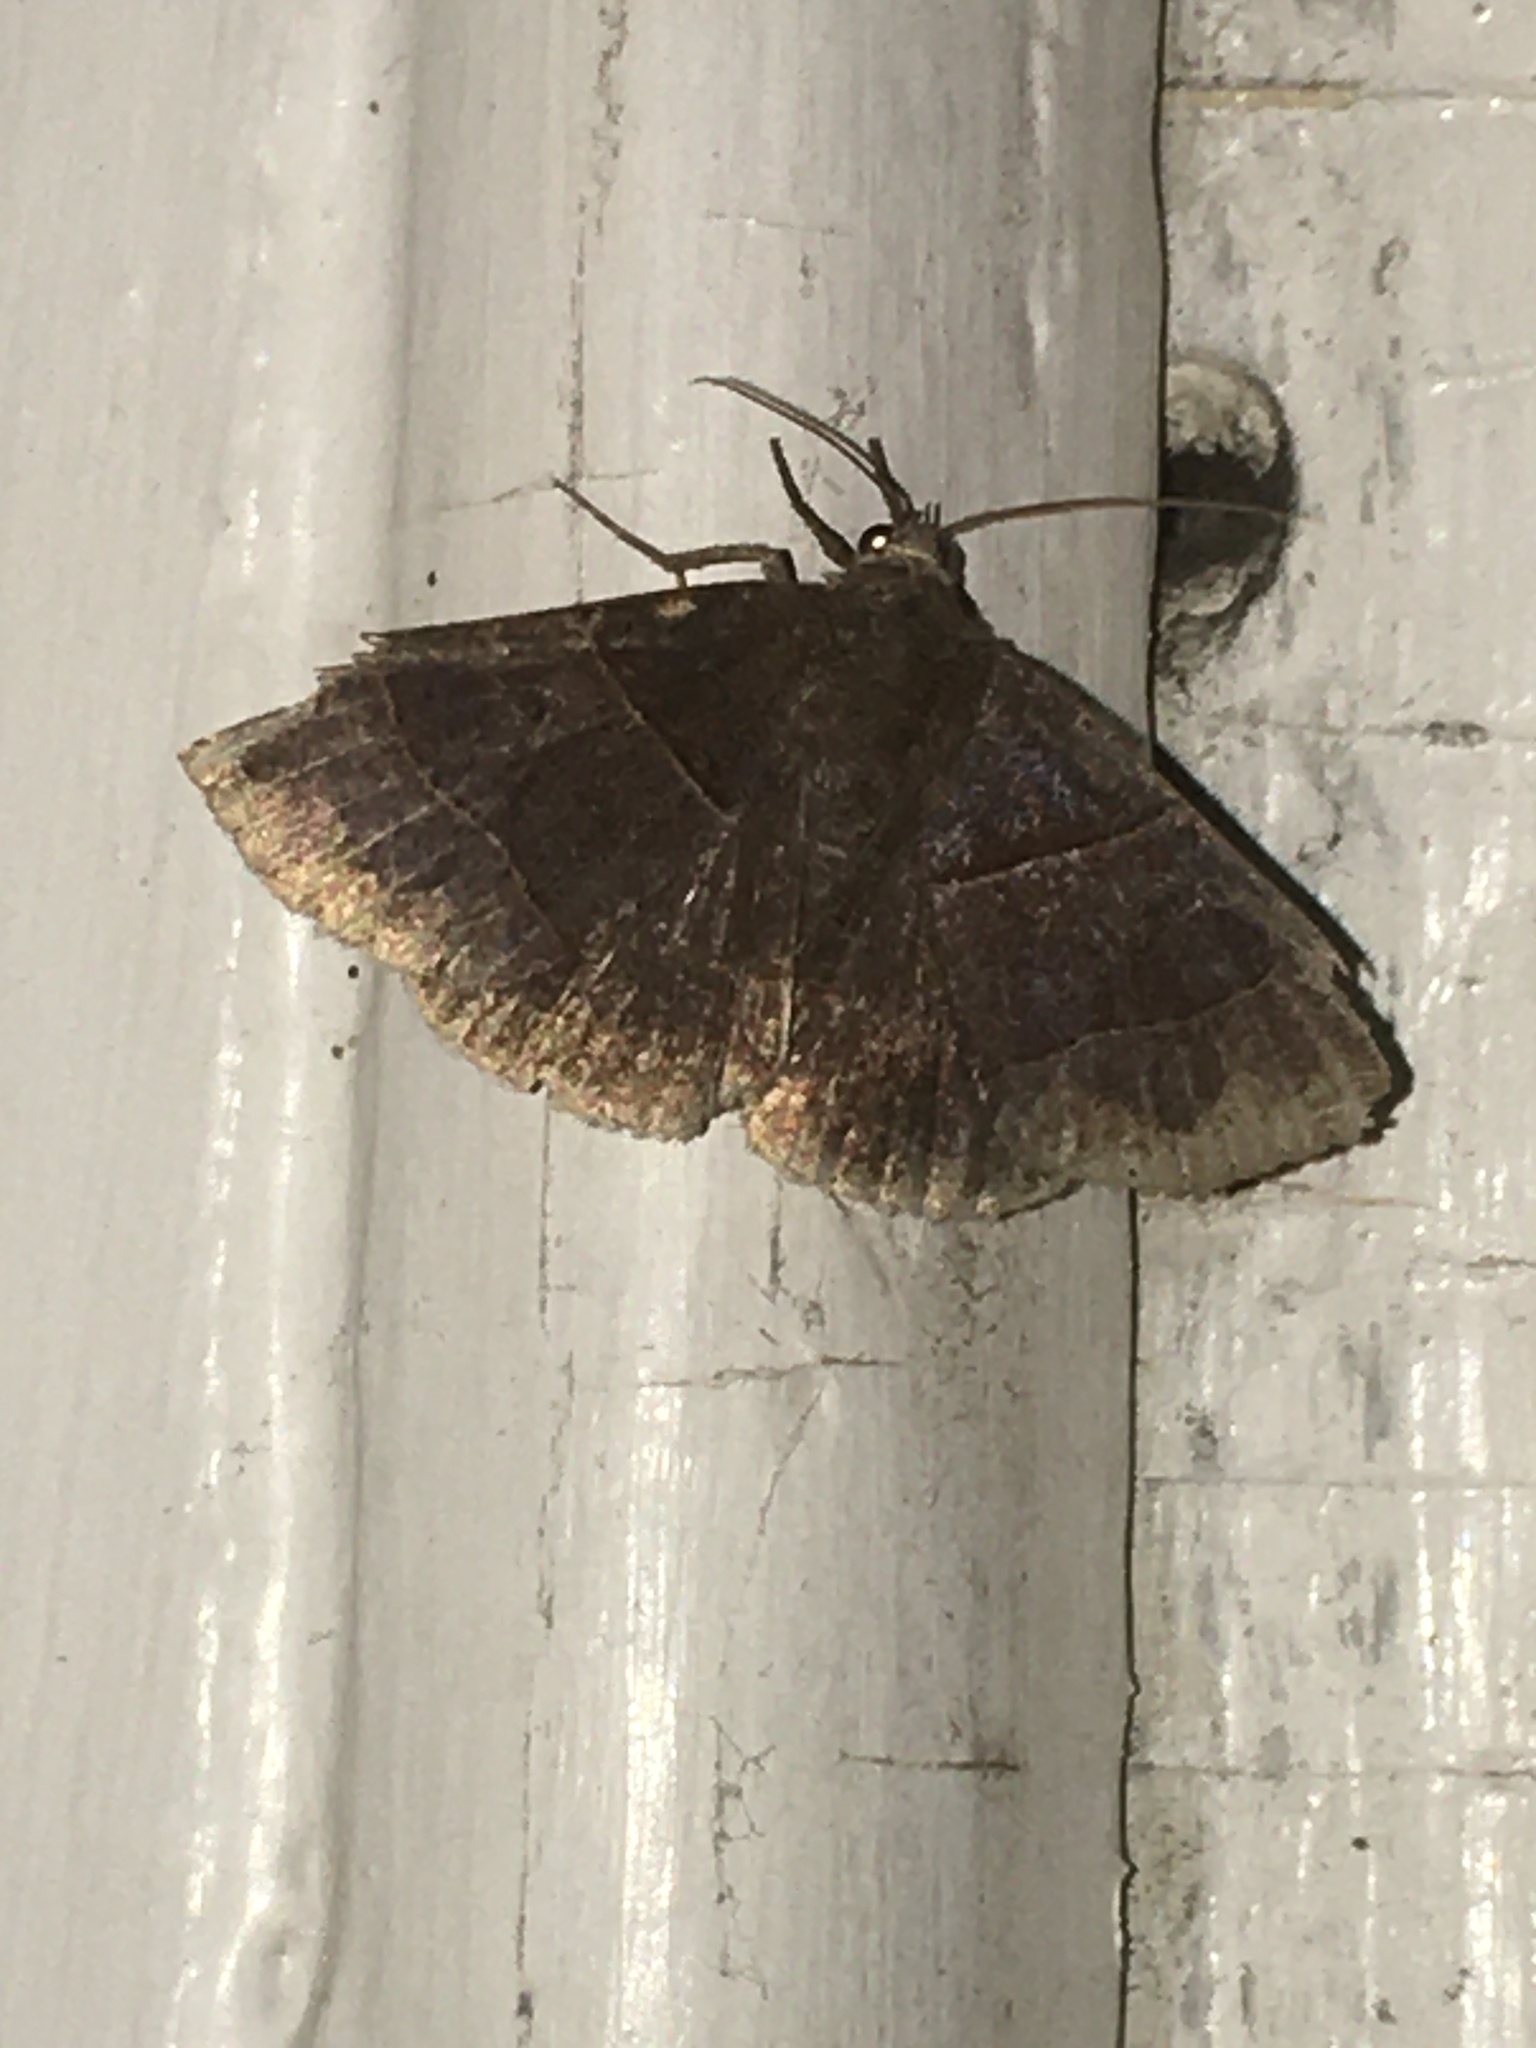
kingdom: Animalia
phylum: Arthropoda
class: Insecta
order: Lepidoptera
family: Erebidae
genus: Parallelia
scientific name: Parallelia bistriaris
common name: Maple looper moth
